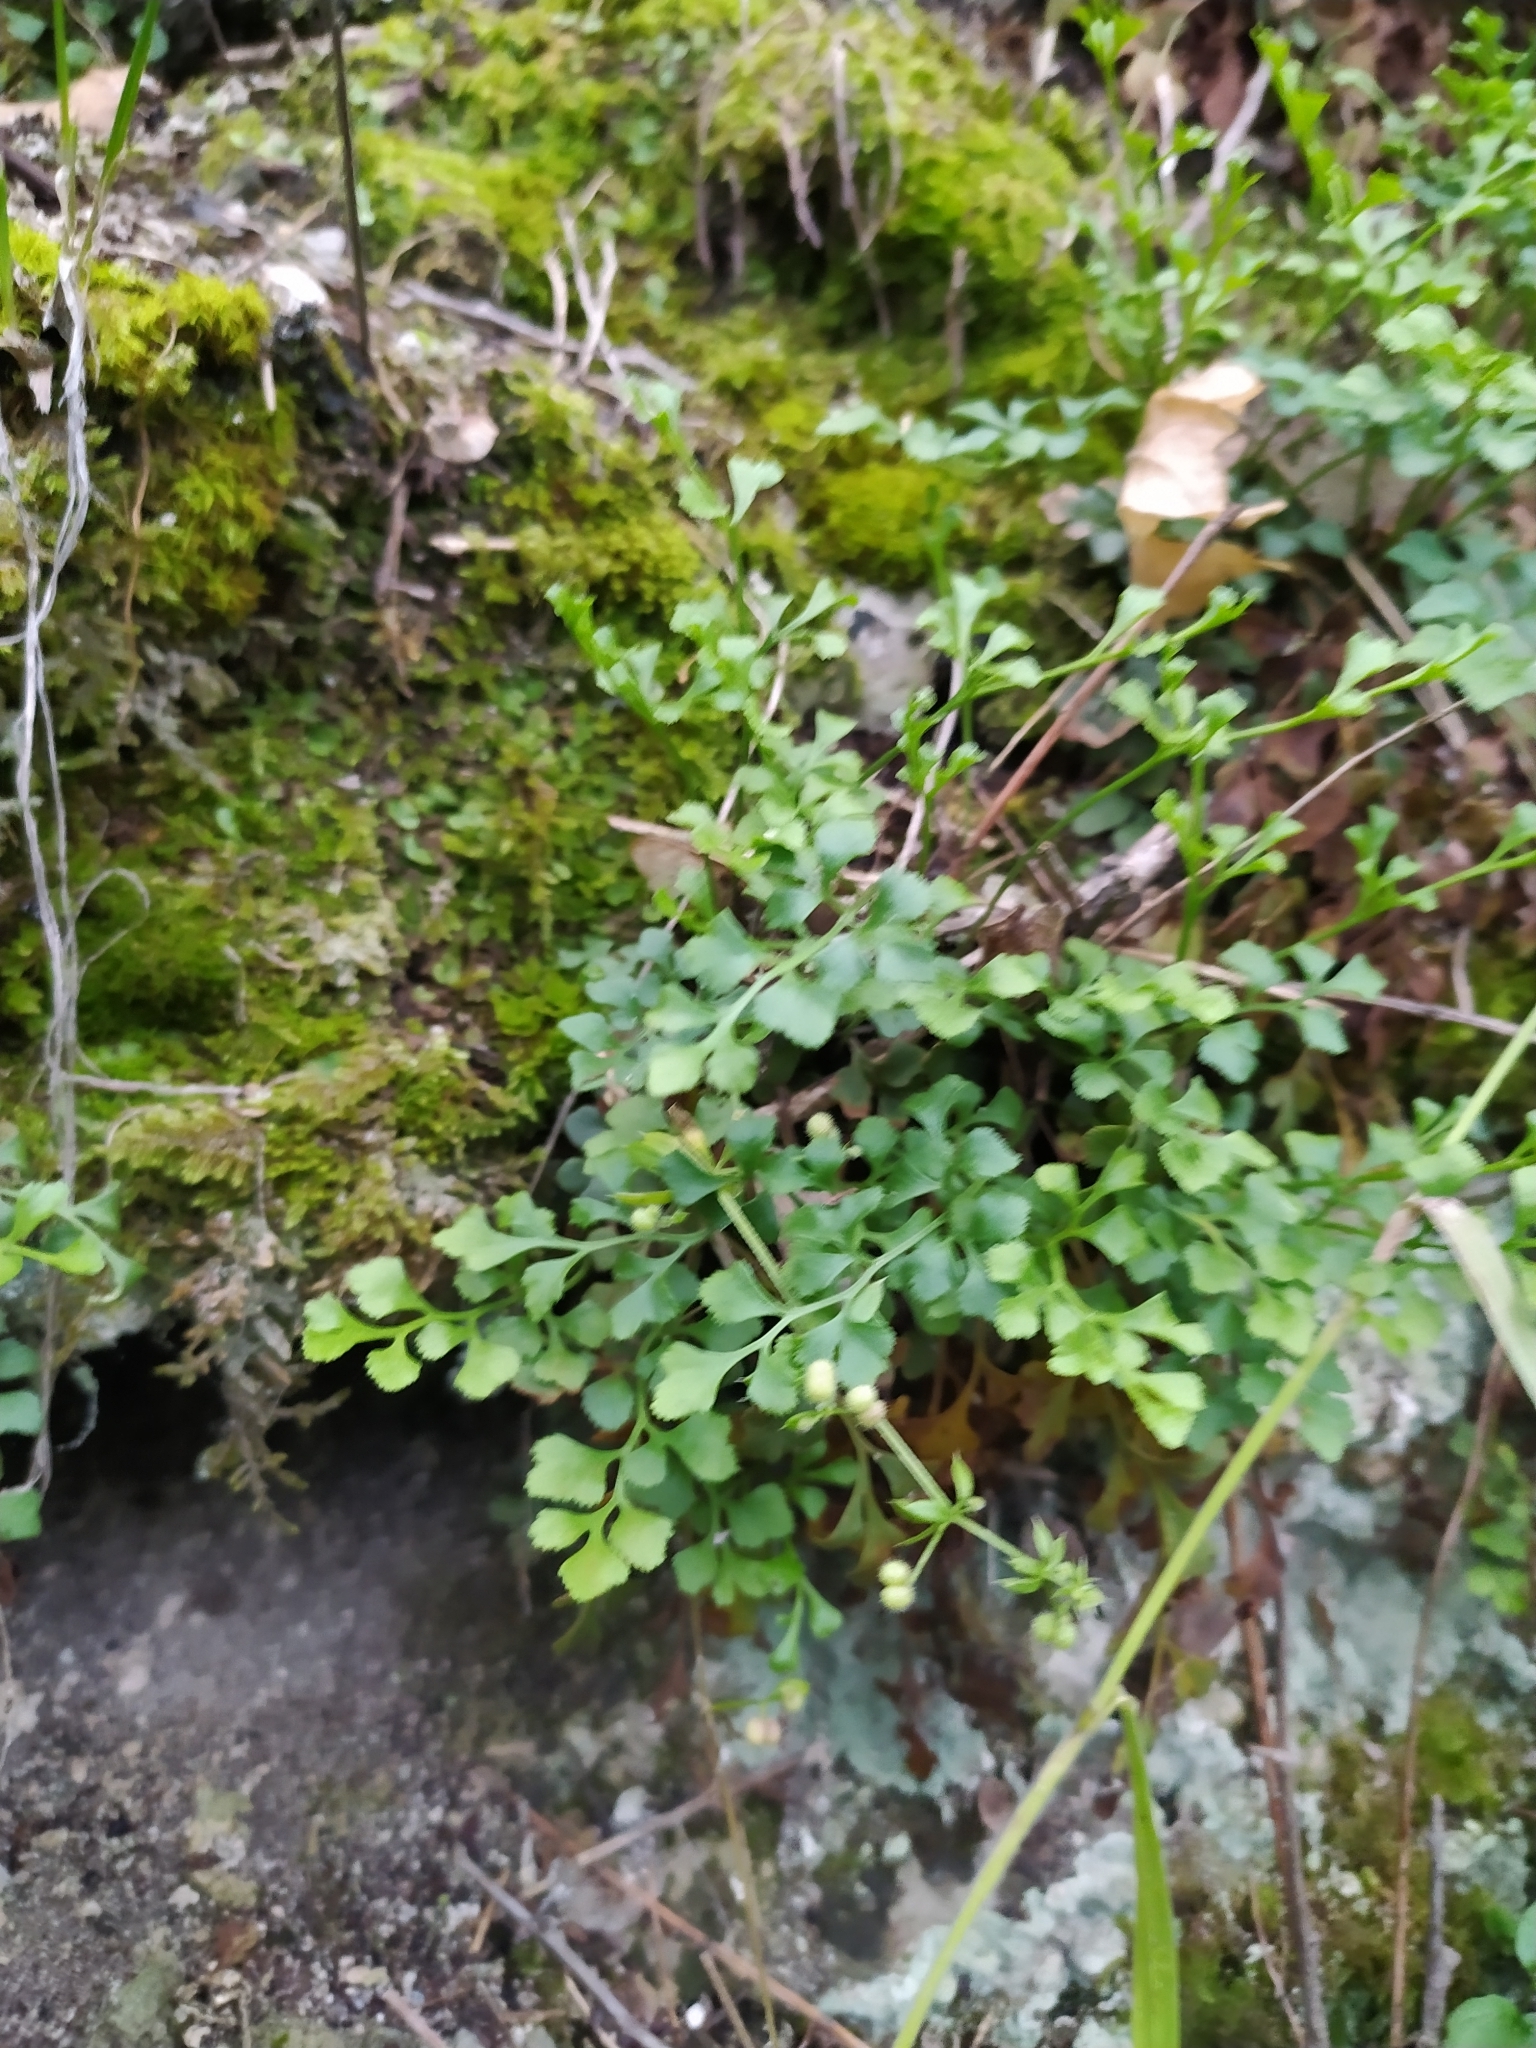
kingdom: Plantae
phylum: Tracheophyta
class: Polypodiopsida
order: Polypodiales
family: Aspleniaceae
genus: Asplenium
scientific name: Asplenium ruta-muraria
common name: Wall-rue
